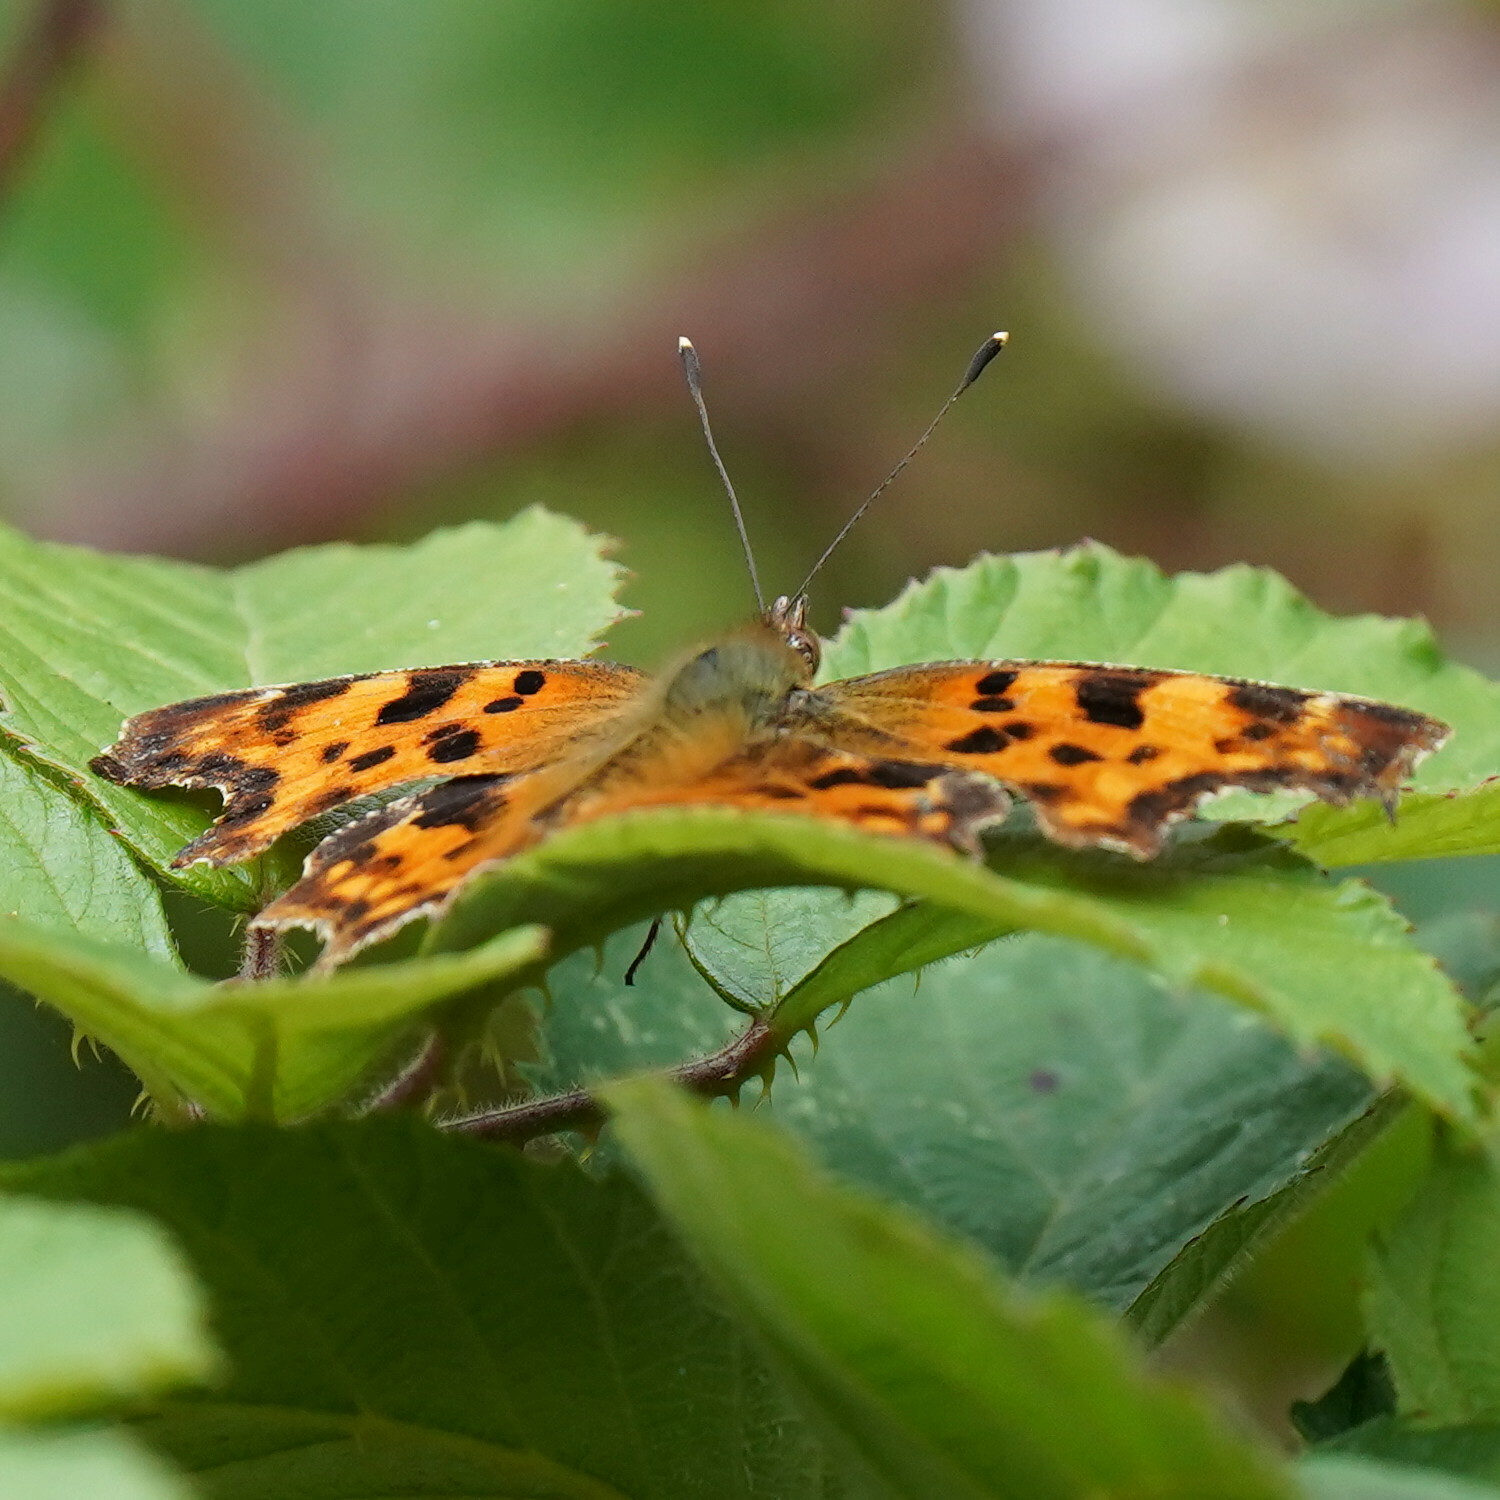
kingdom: Animalia
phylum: Arthropoda
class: Insecta
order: Lepidoptera
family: Nymphalidae
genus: Polygonia
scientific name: Polygonia c-album
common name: Comma
